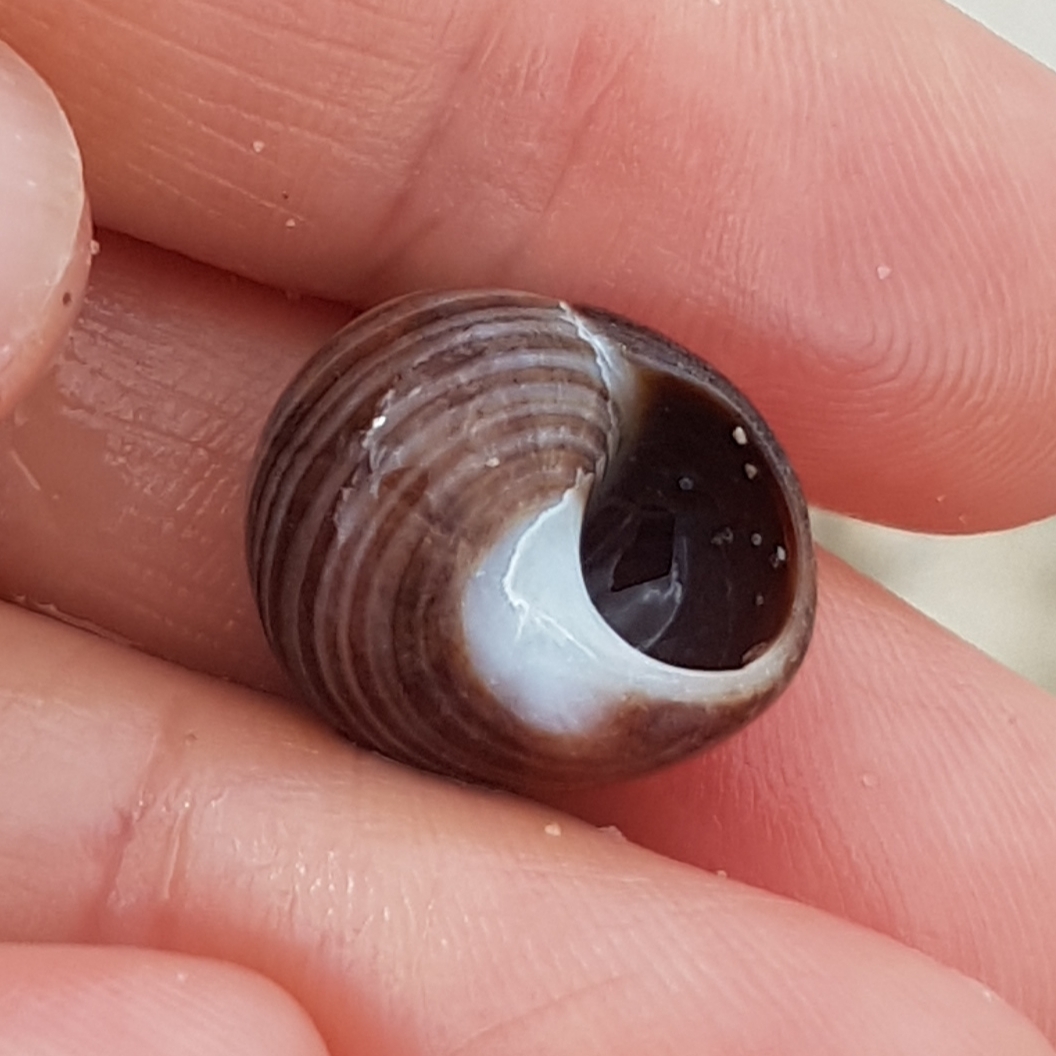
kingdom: Animalia
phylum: Mollusca
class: Gastropoda
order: Littorinimorpha
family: Littorinidae
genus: Littorina
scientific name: Littorina littorea
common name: Common periwinkle
